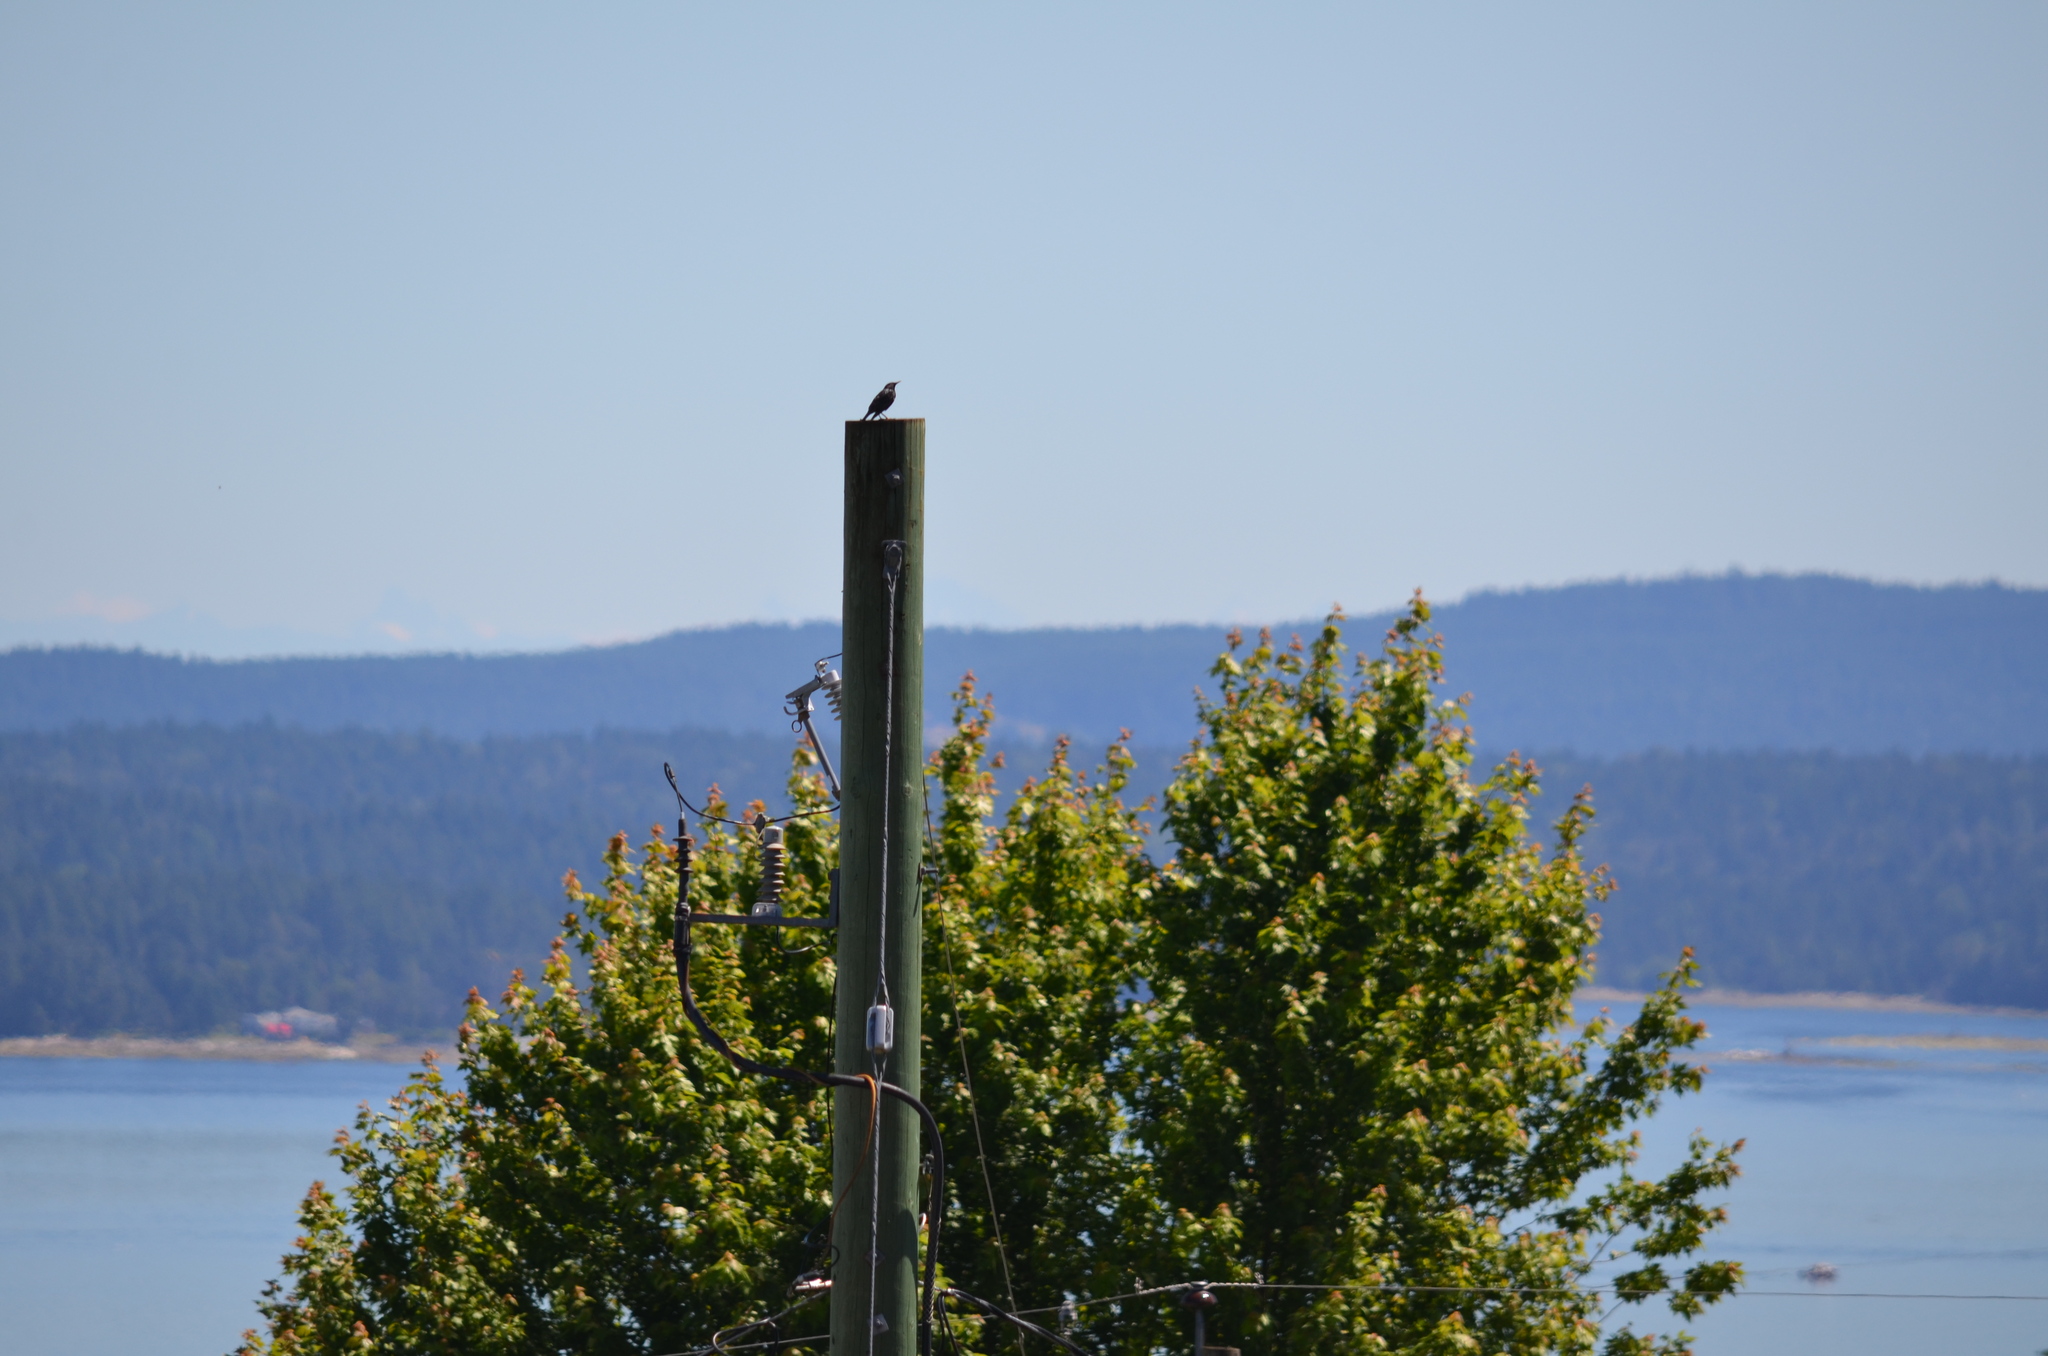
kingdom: Animalia
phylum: Chordata
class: Aves
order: Passeriformes
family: Sturnidae
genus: Sturnus
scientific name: Sturnus vulgaris
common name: Common starling
